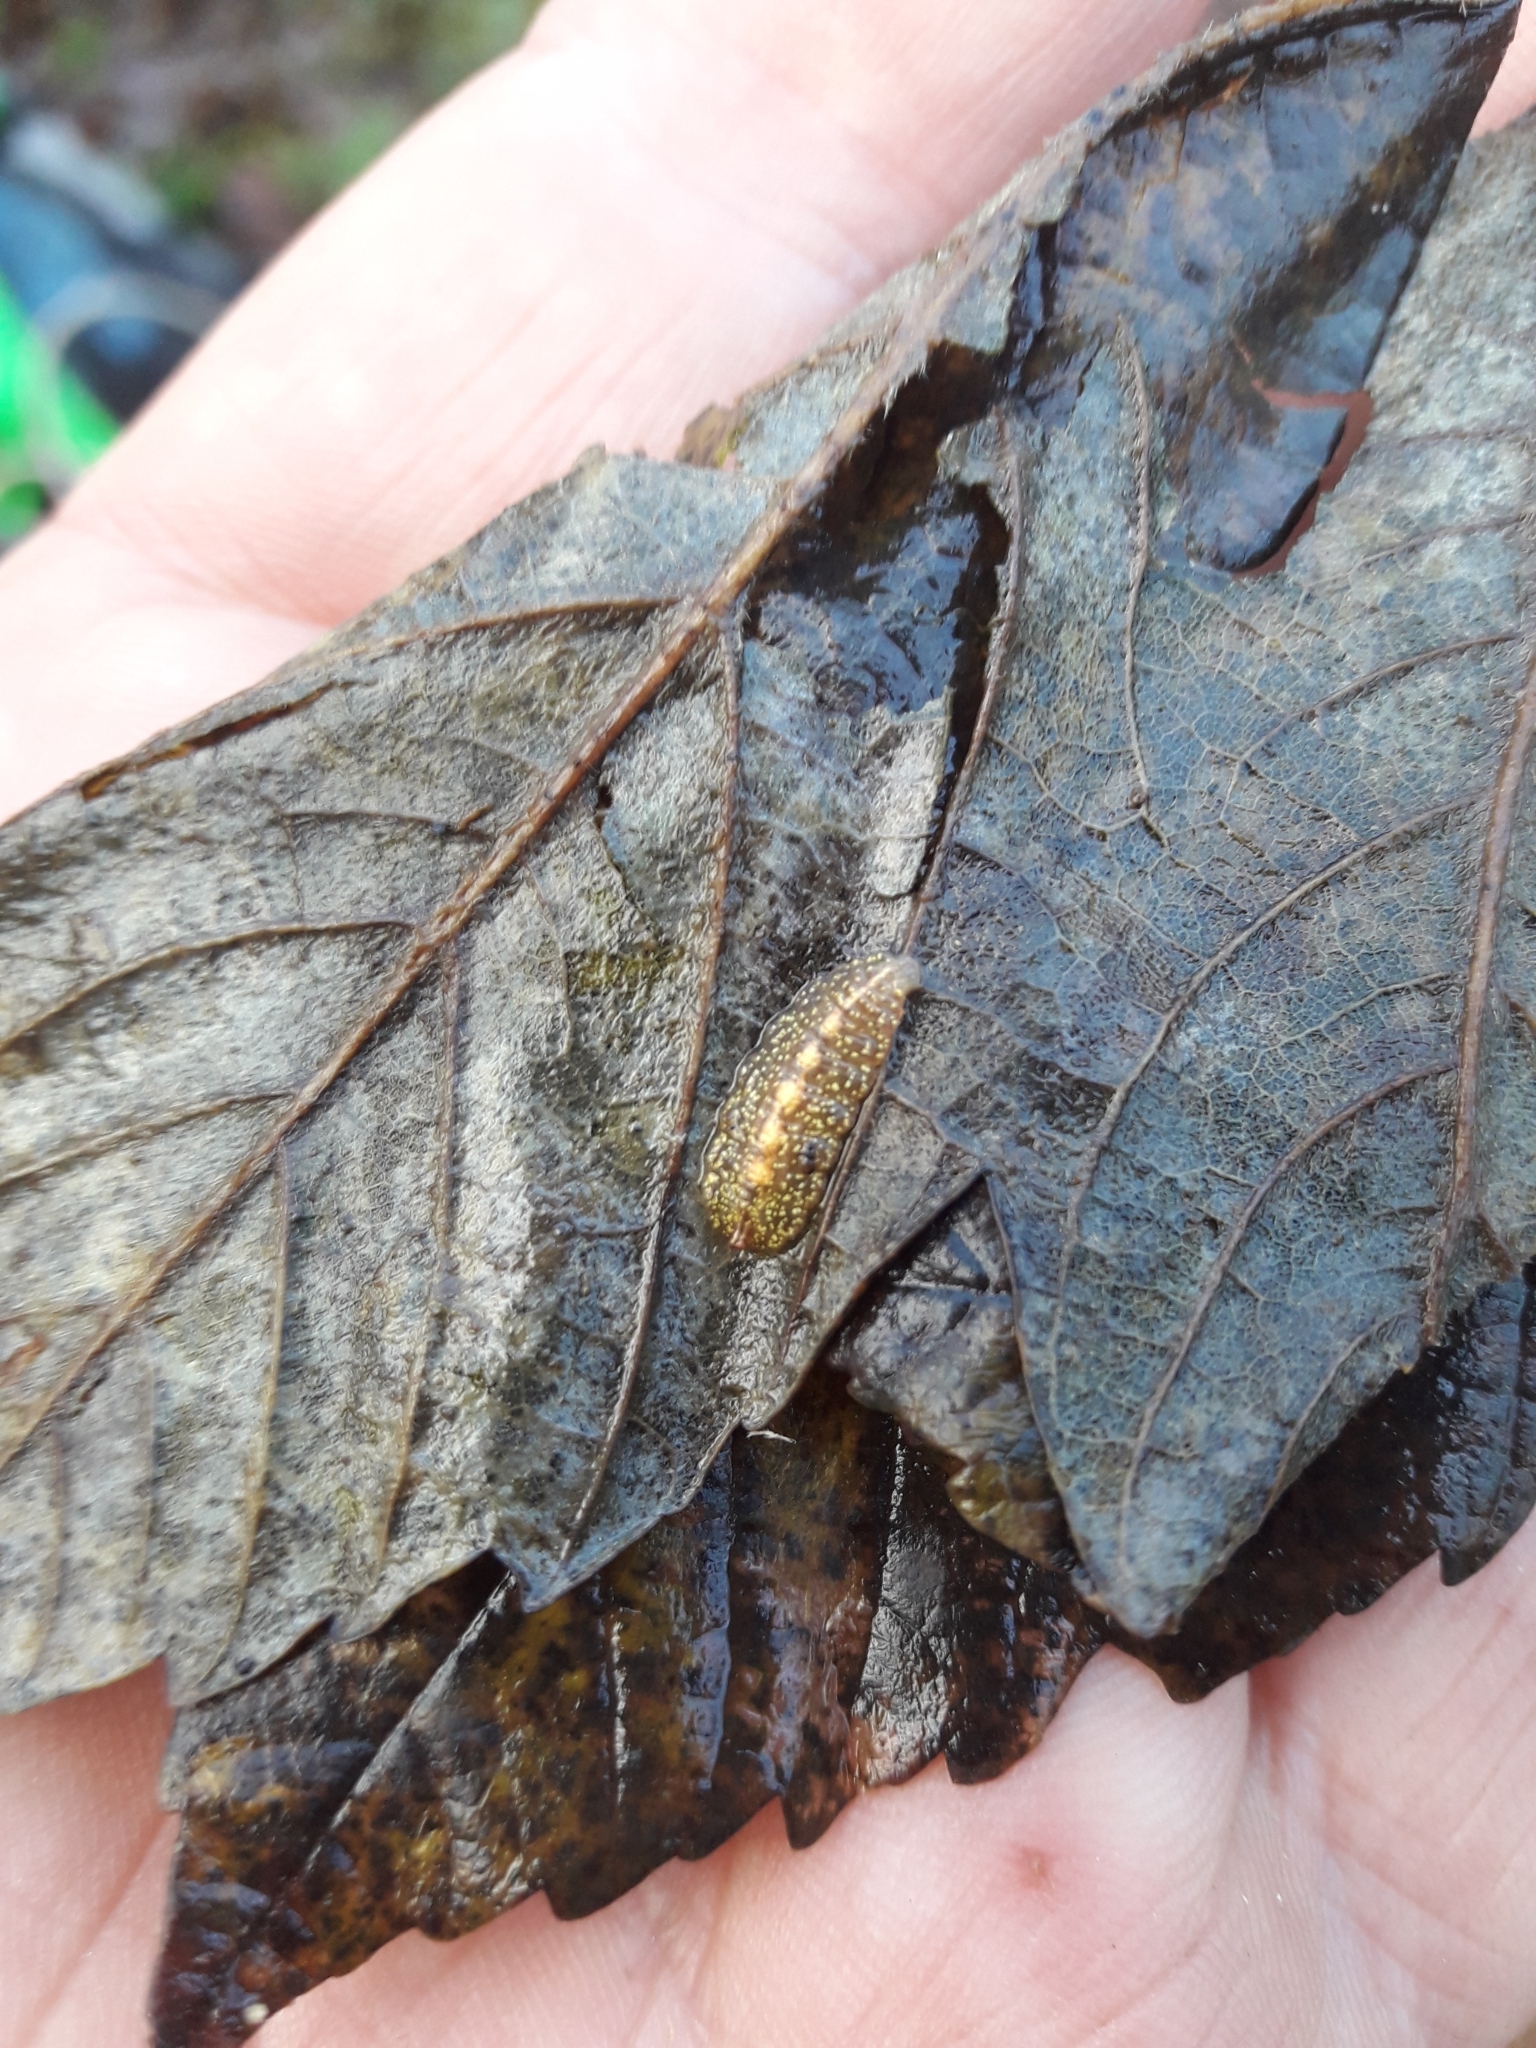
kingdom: Animalia
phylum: Arthropoda
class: Insecta
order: Diptera
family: Syrphidae
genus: Epistrophe
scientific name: Epistrophe grossulariae
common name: Black-horned smoothtail
